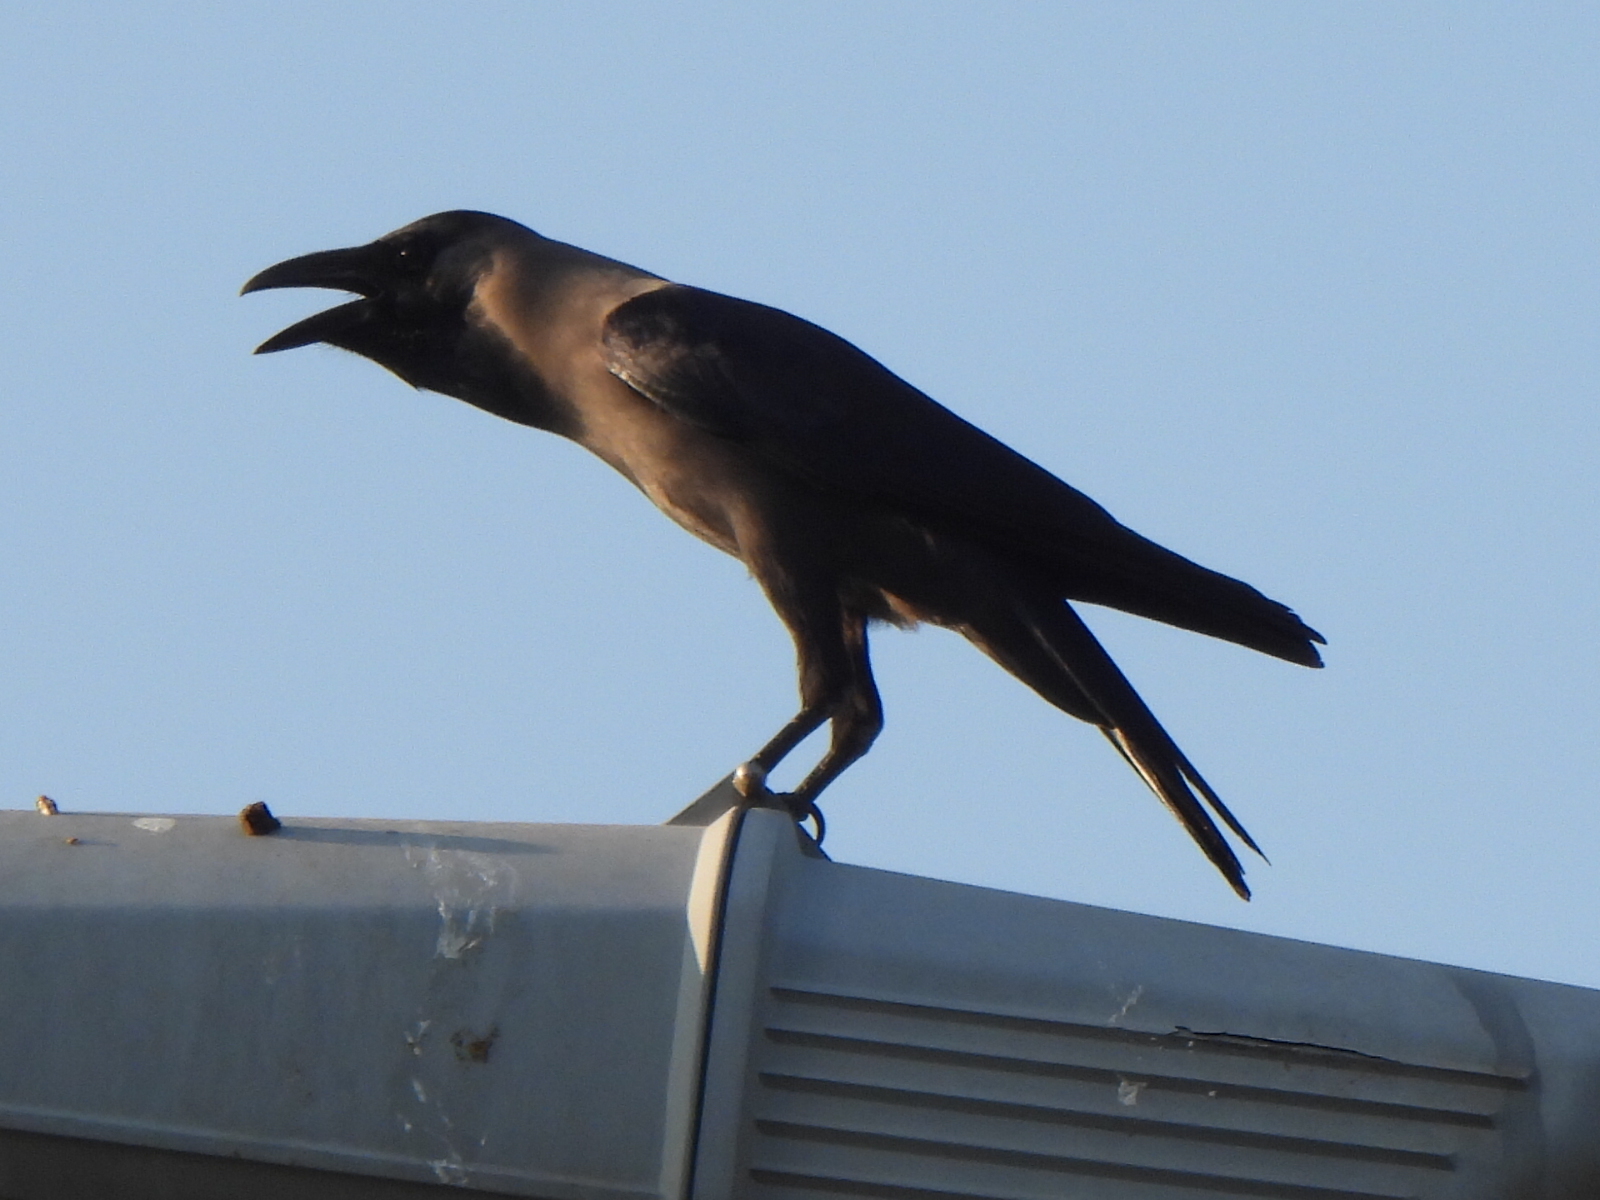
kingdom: Animalia
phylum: Chordata
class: Aves
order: Passeriformes
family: Corvidae
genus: Corvus
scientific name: Corvus splendens
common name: House crow
